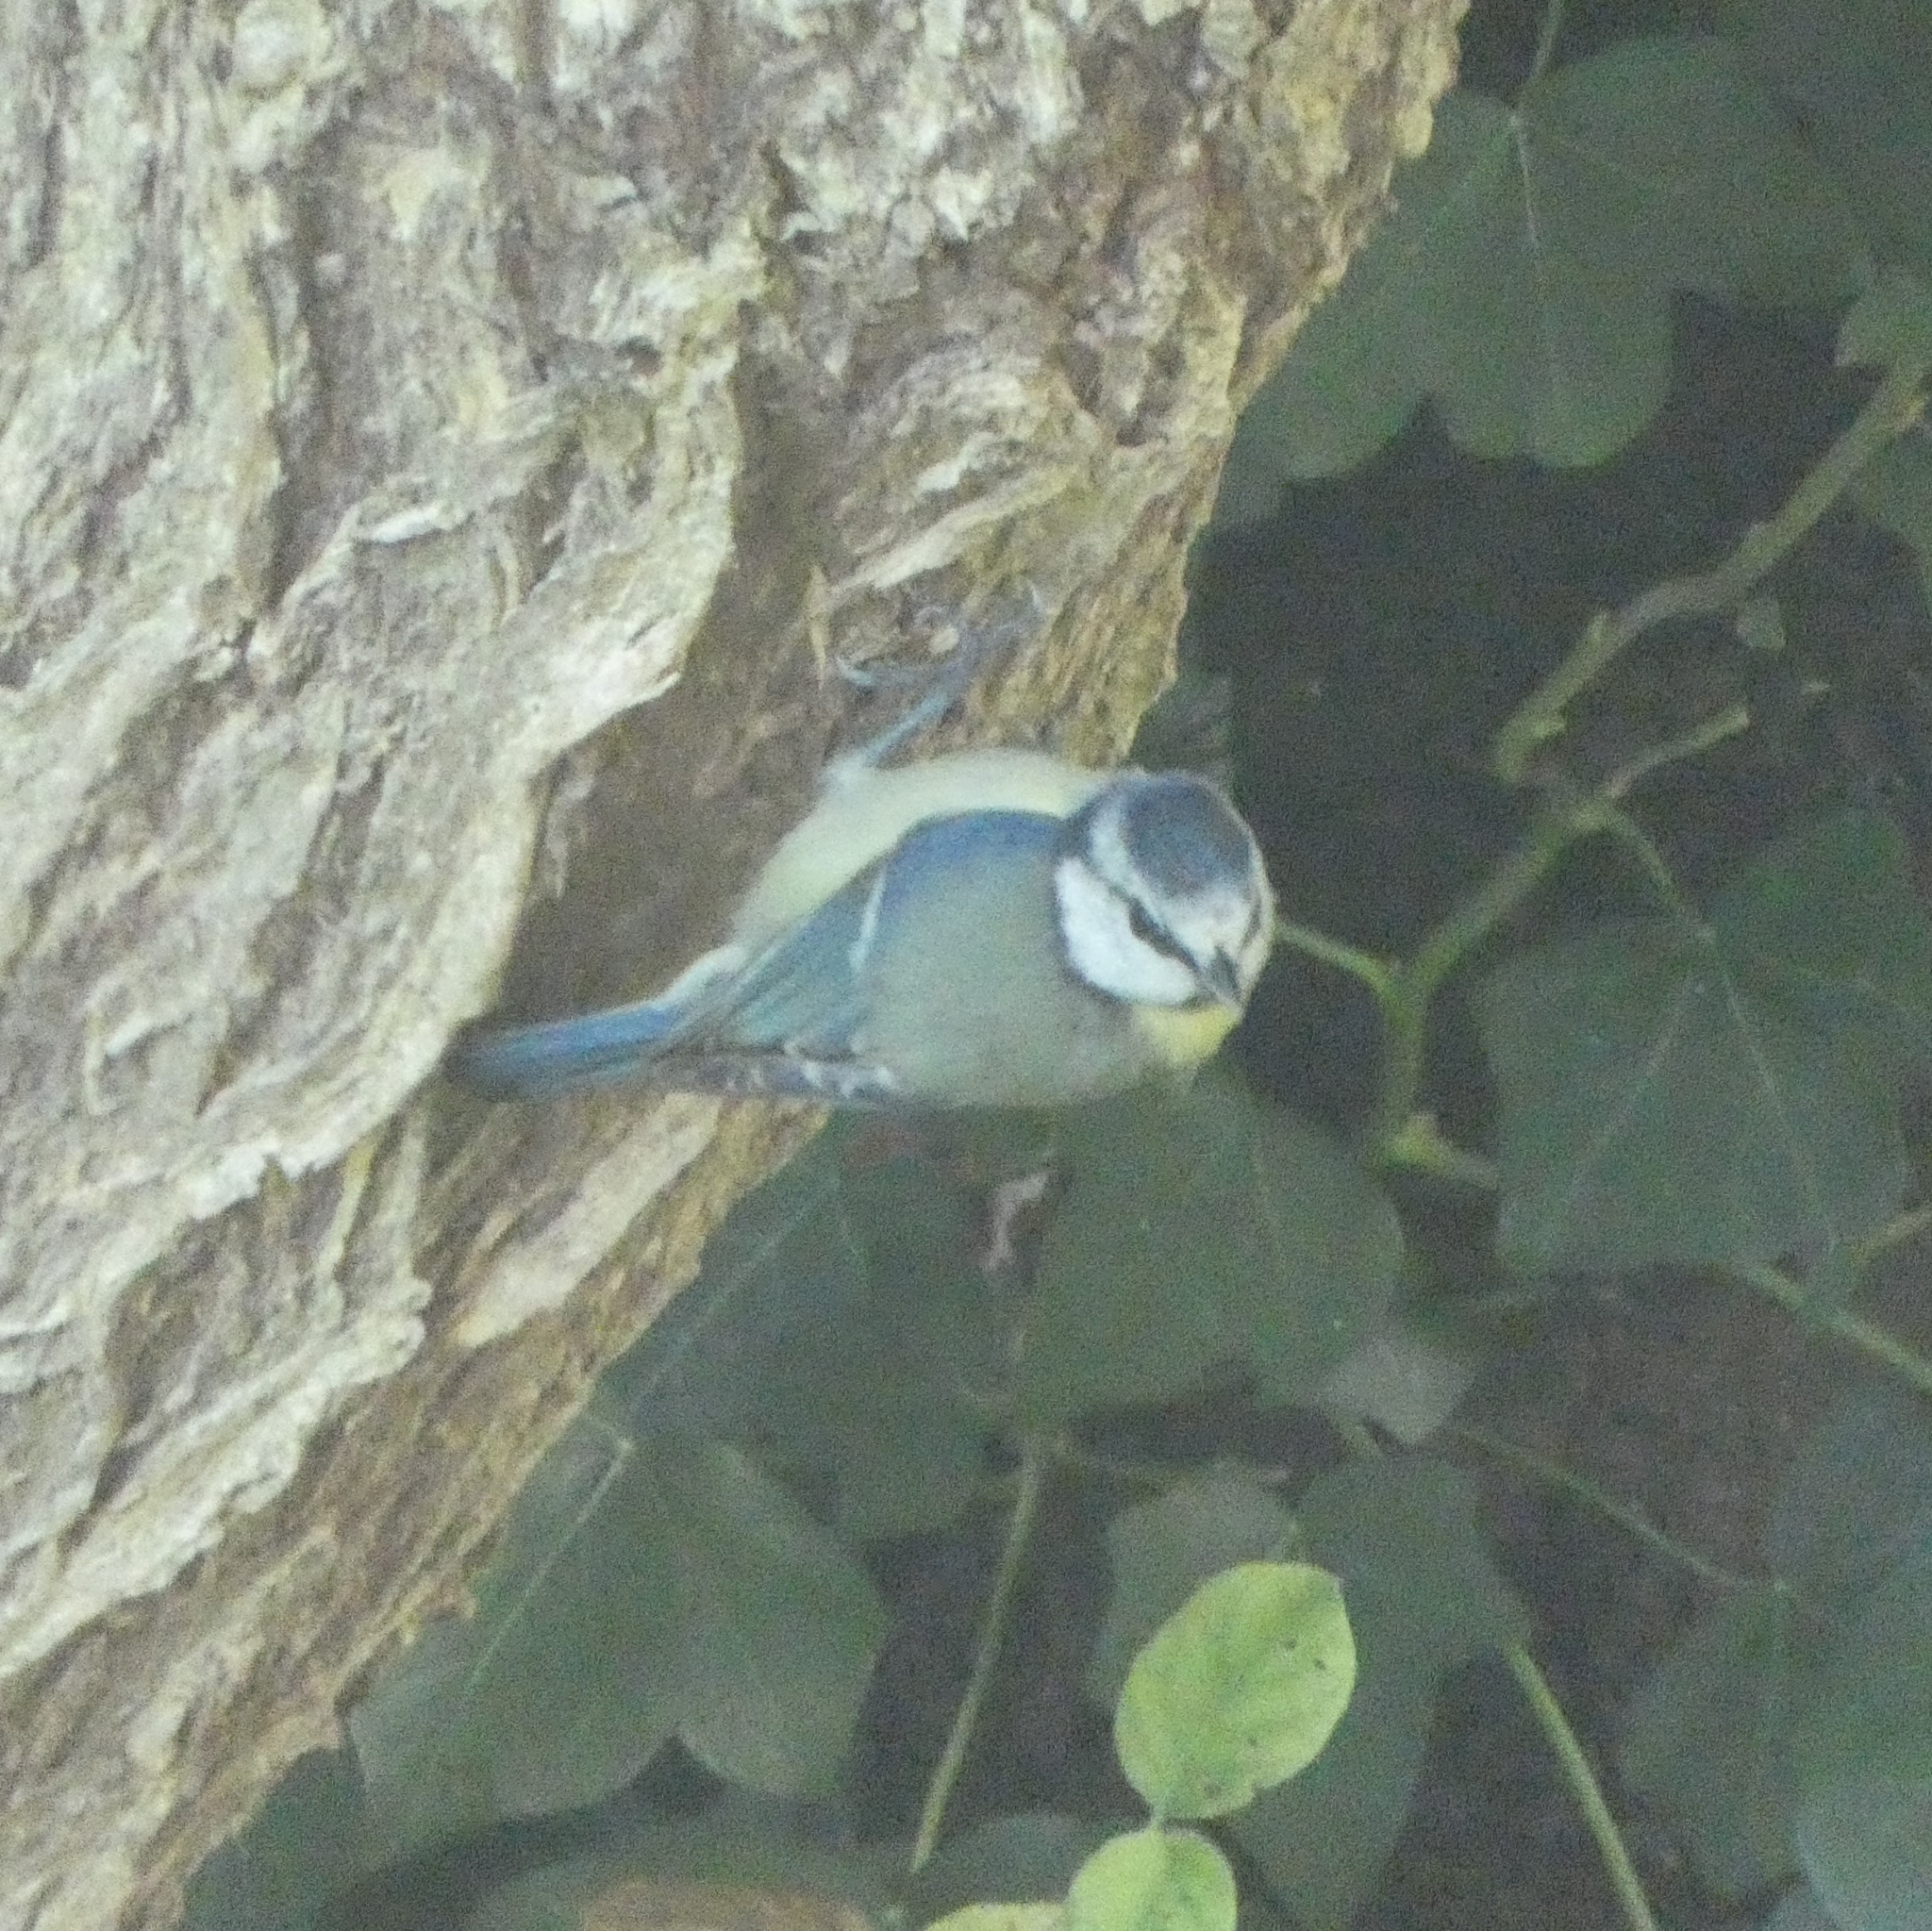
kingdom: Animalia
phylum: Chordata
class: Aves
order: Passeriformes
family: Paridae
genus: Cyanistes
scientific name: Cyanistes caeruleus
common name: Eurasian blue tit
